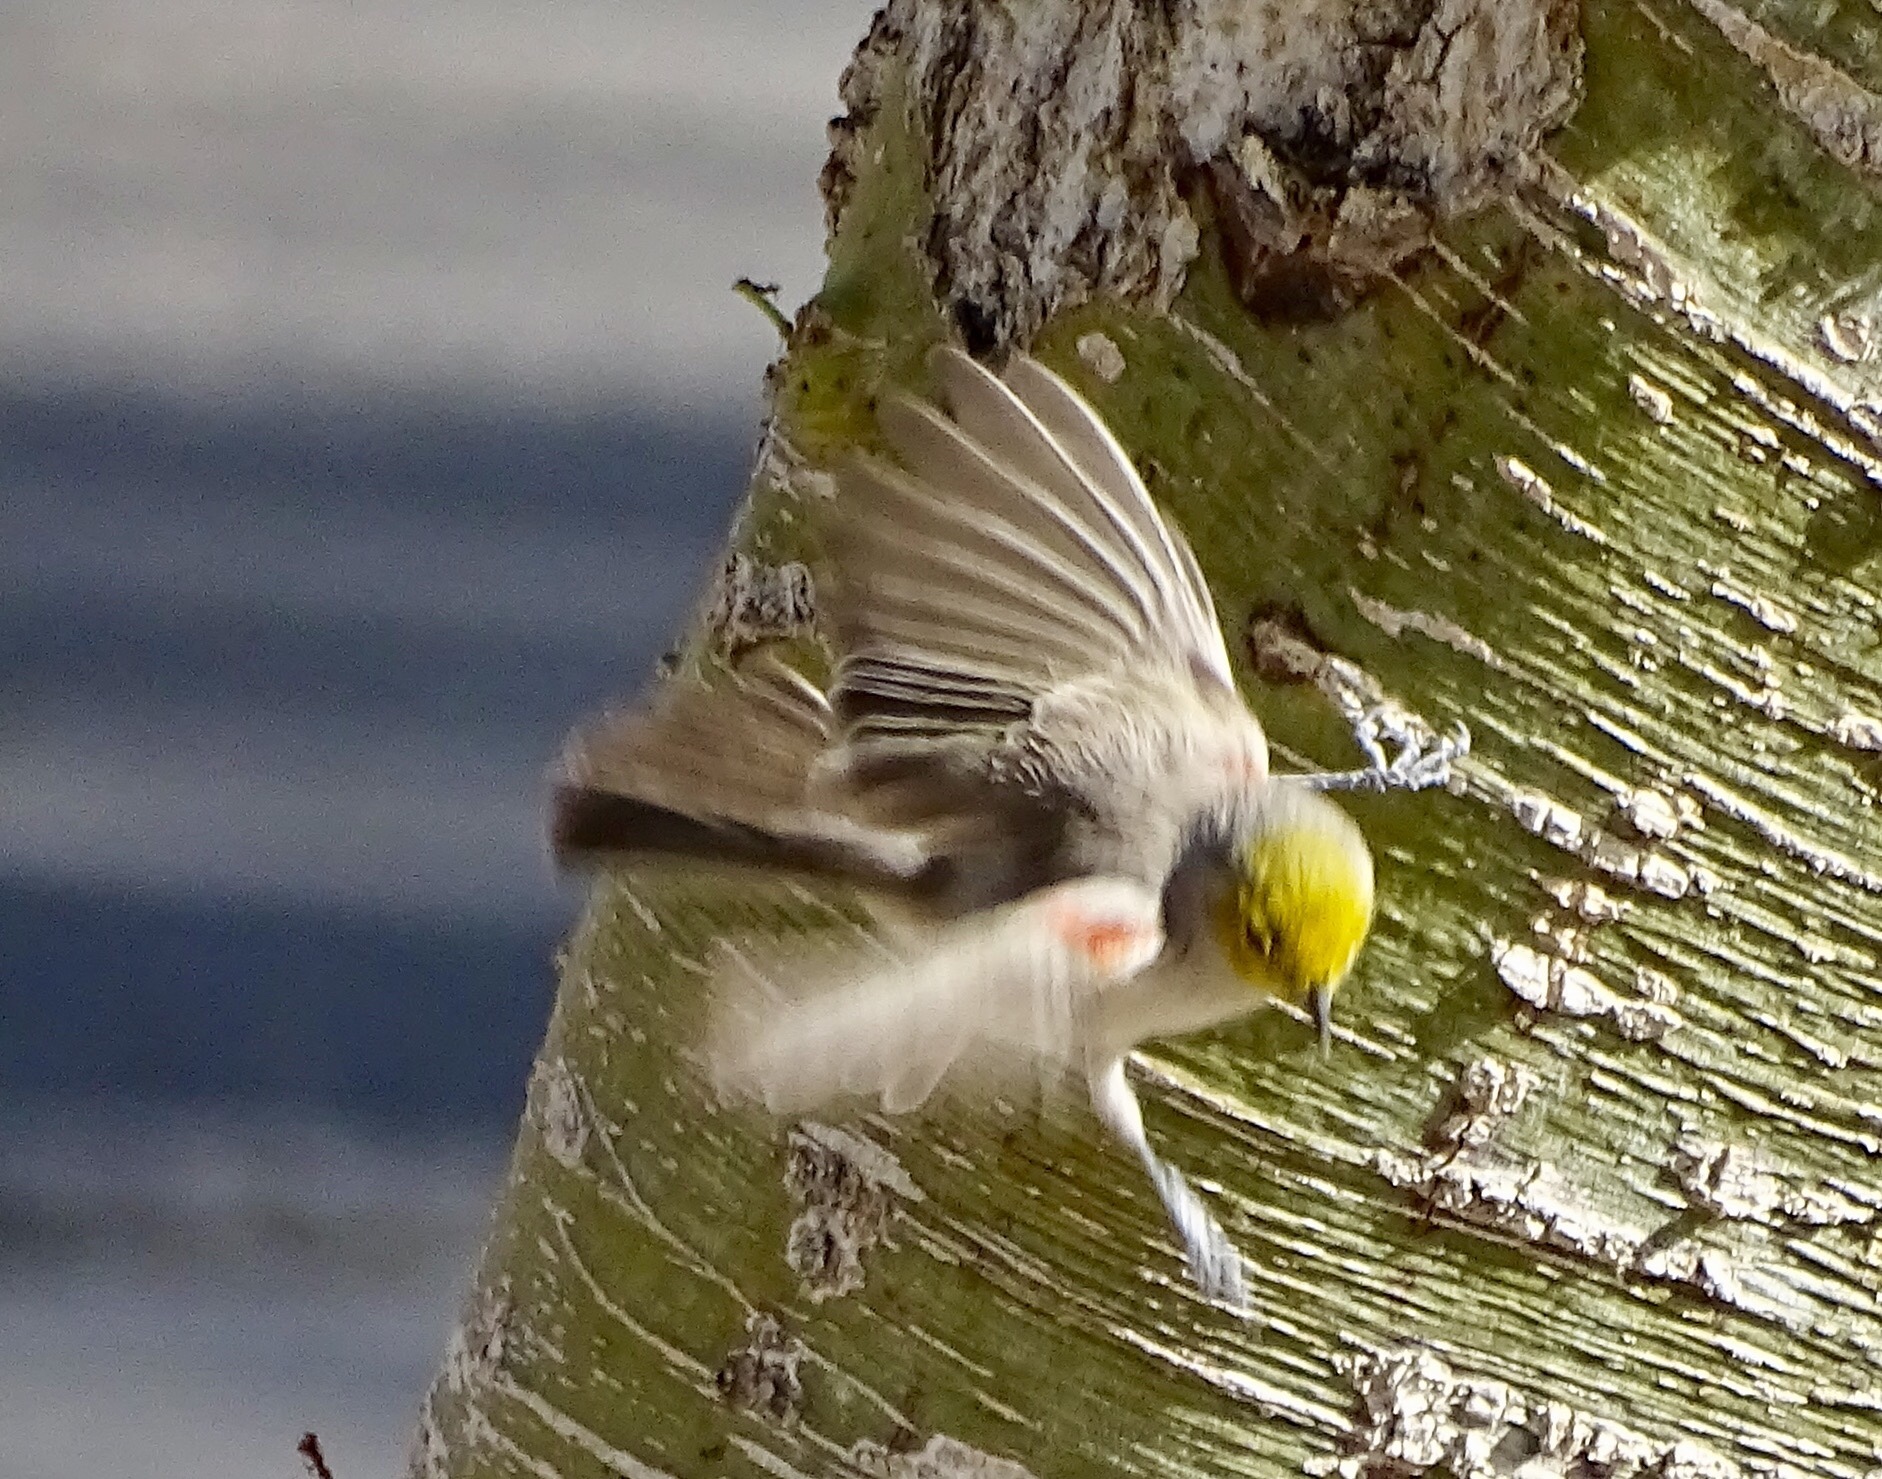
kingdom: Animalia
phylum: Chordata
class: Aves
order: Passeriformes
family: Remizidae
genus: Auriparus
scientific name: Auriparus flaviceps
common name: Verdin
